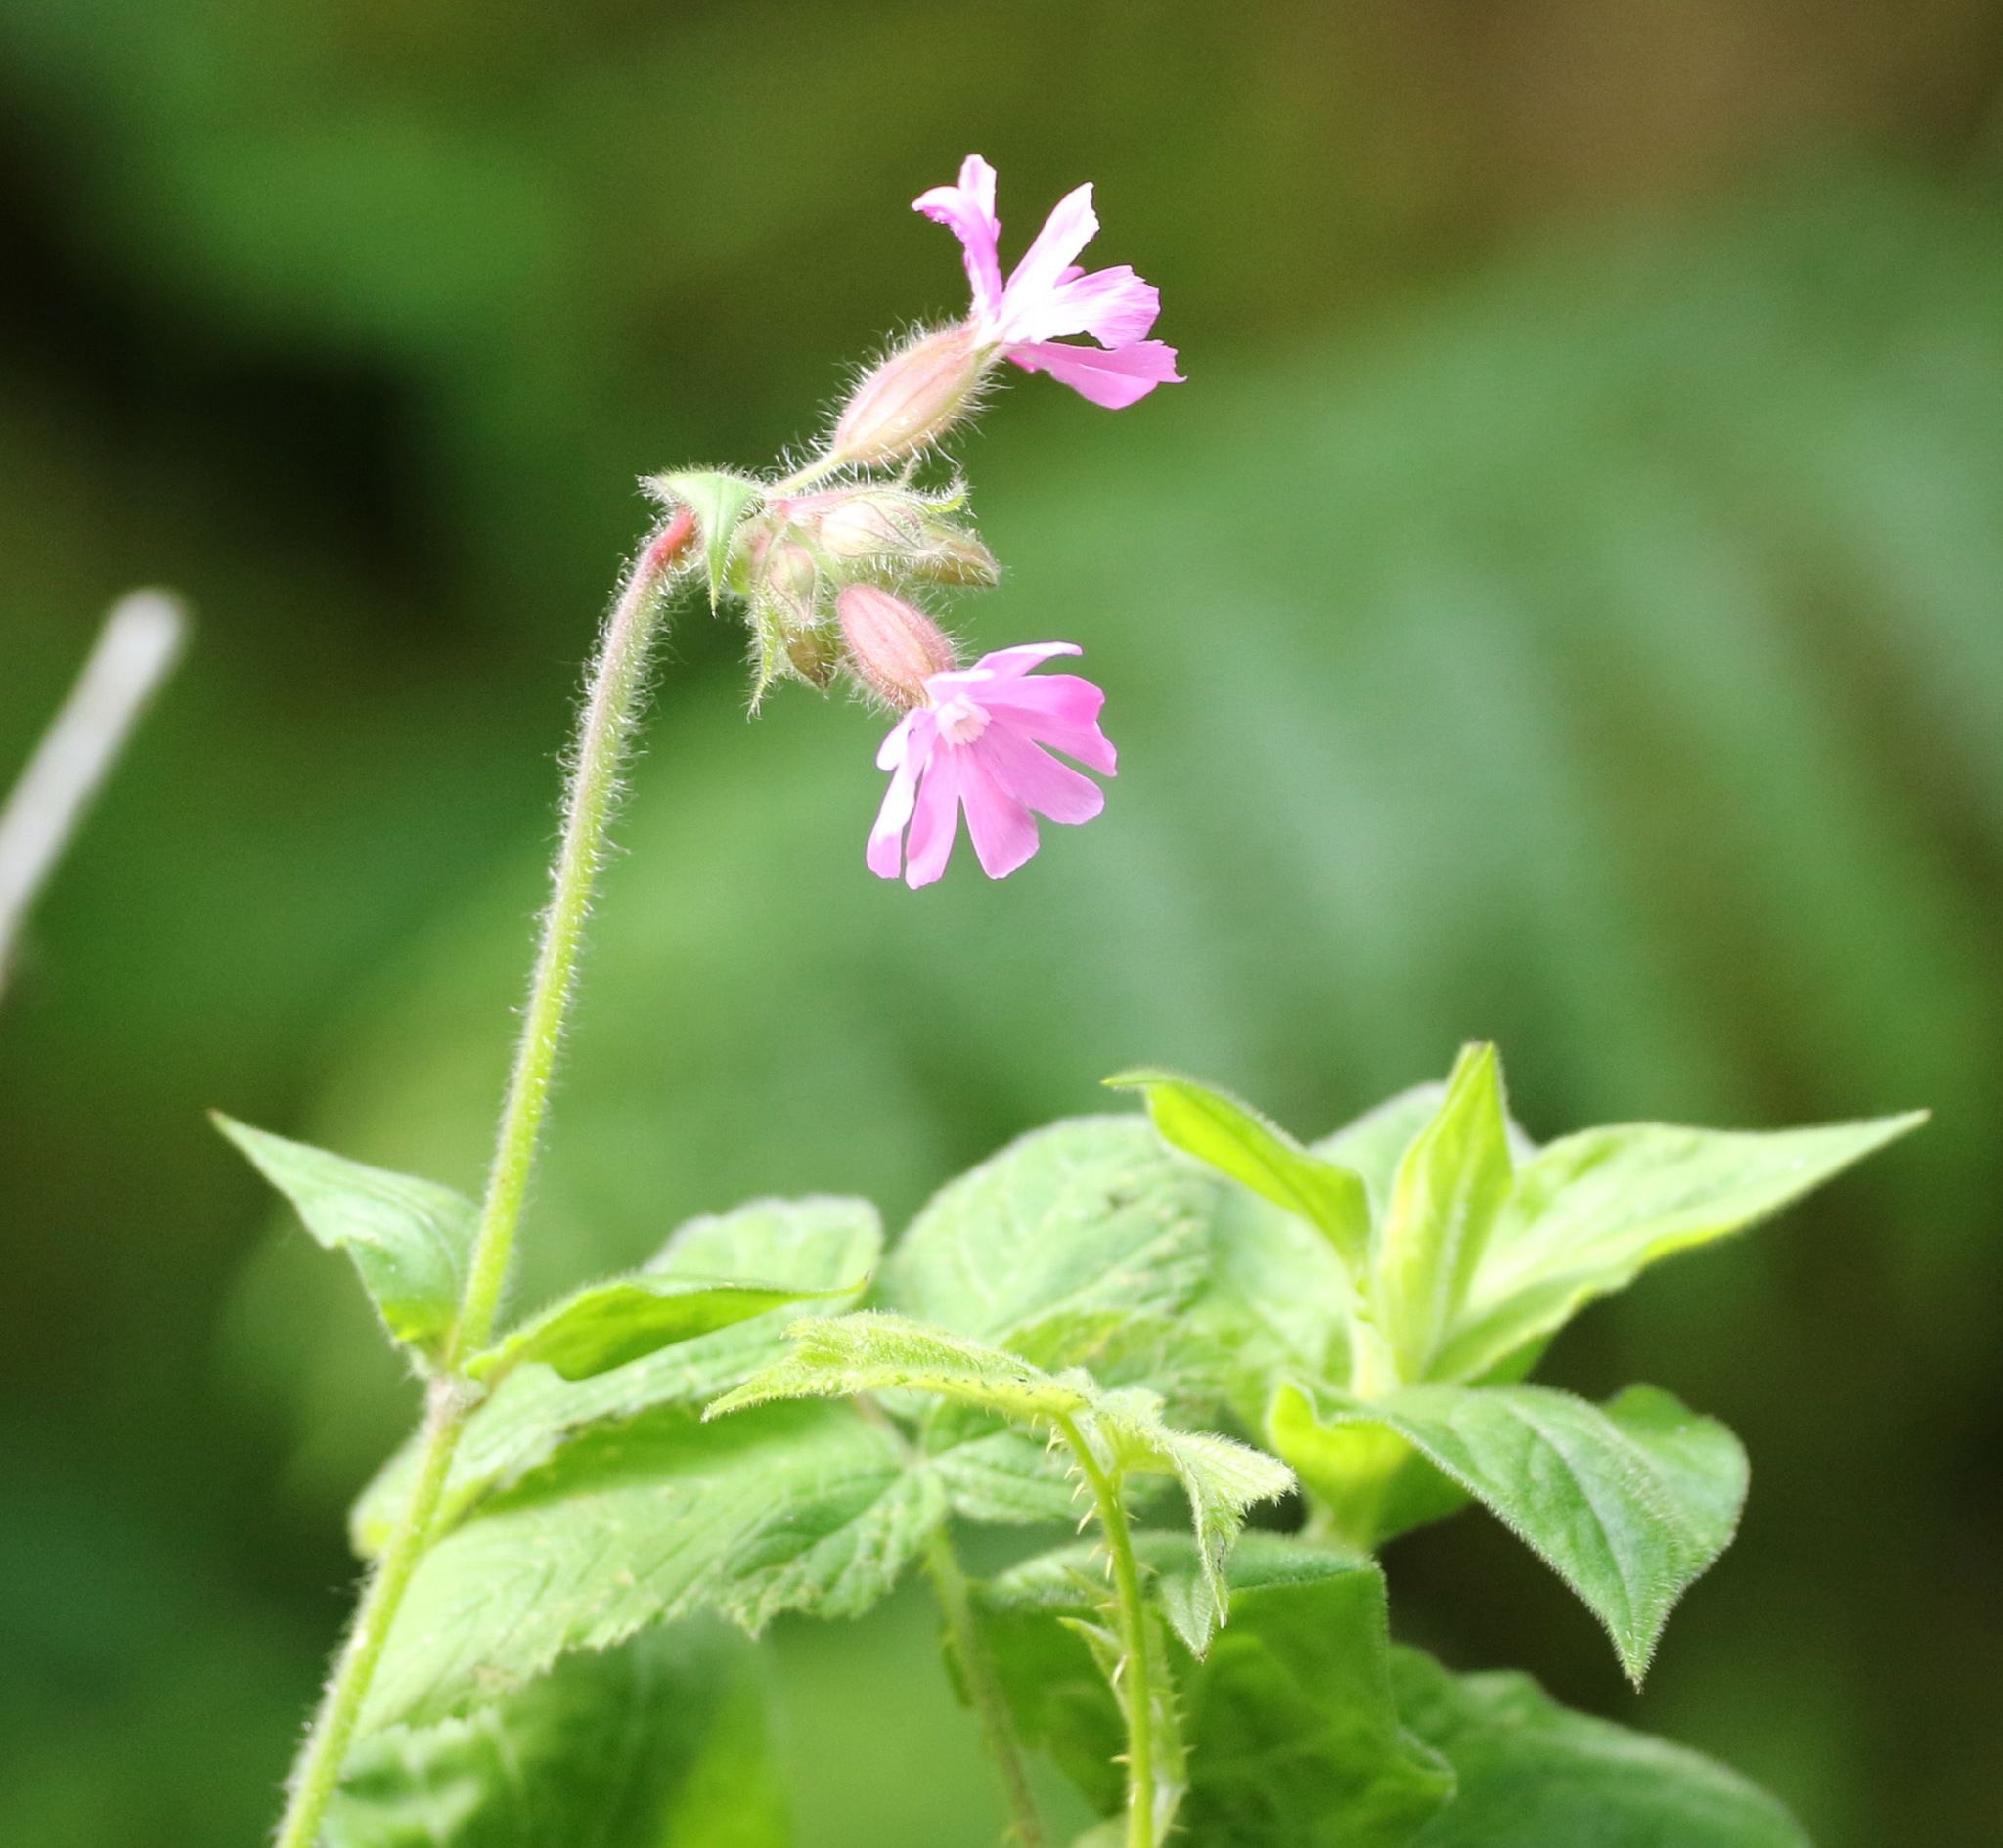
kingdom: Plantae
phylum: Tracheophyta
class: Magnoliopsida
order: Caryophyllales
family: Caryophyllaceae
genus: Silene
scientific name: Silene dioica
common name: Red campion
